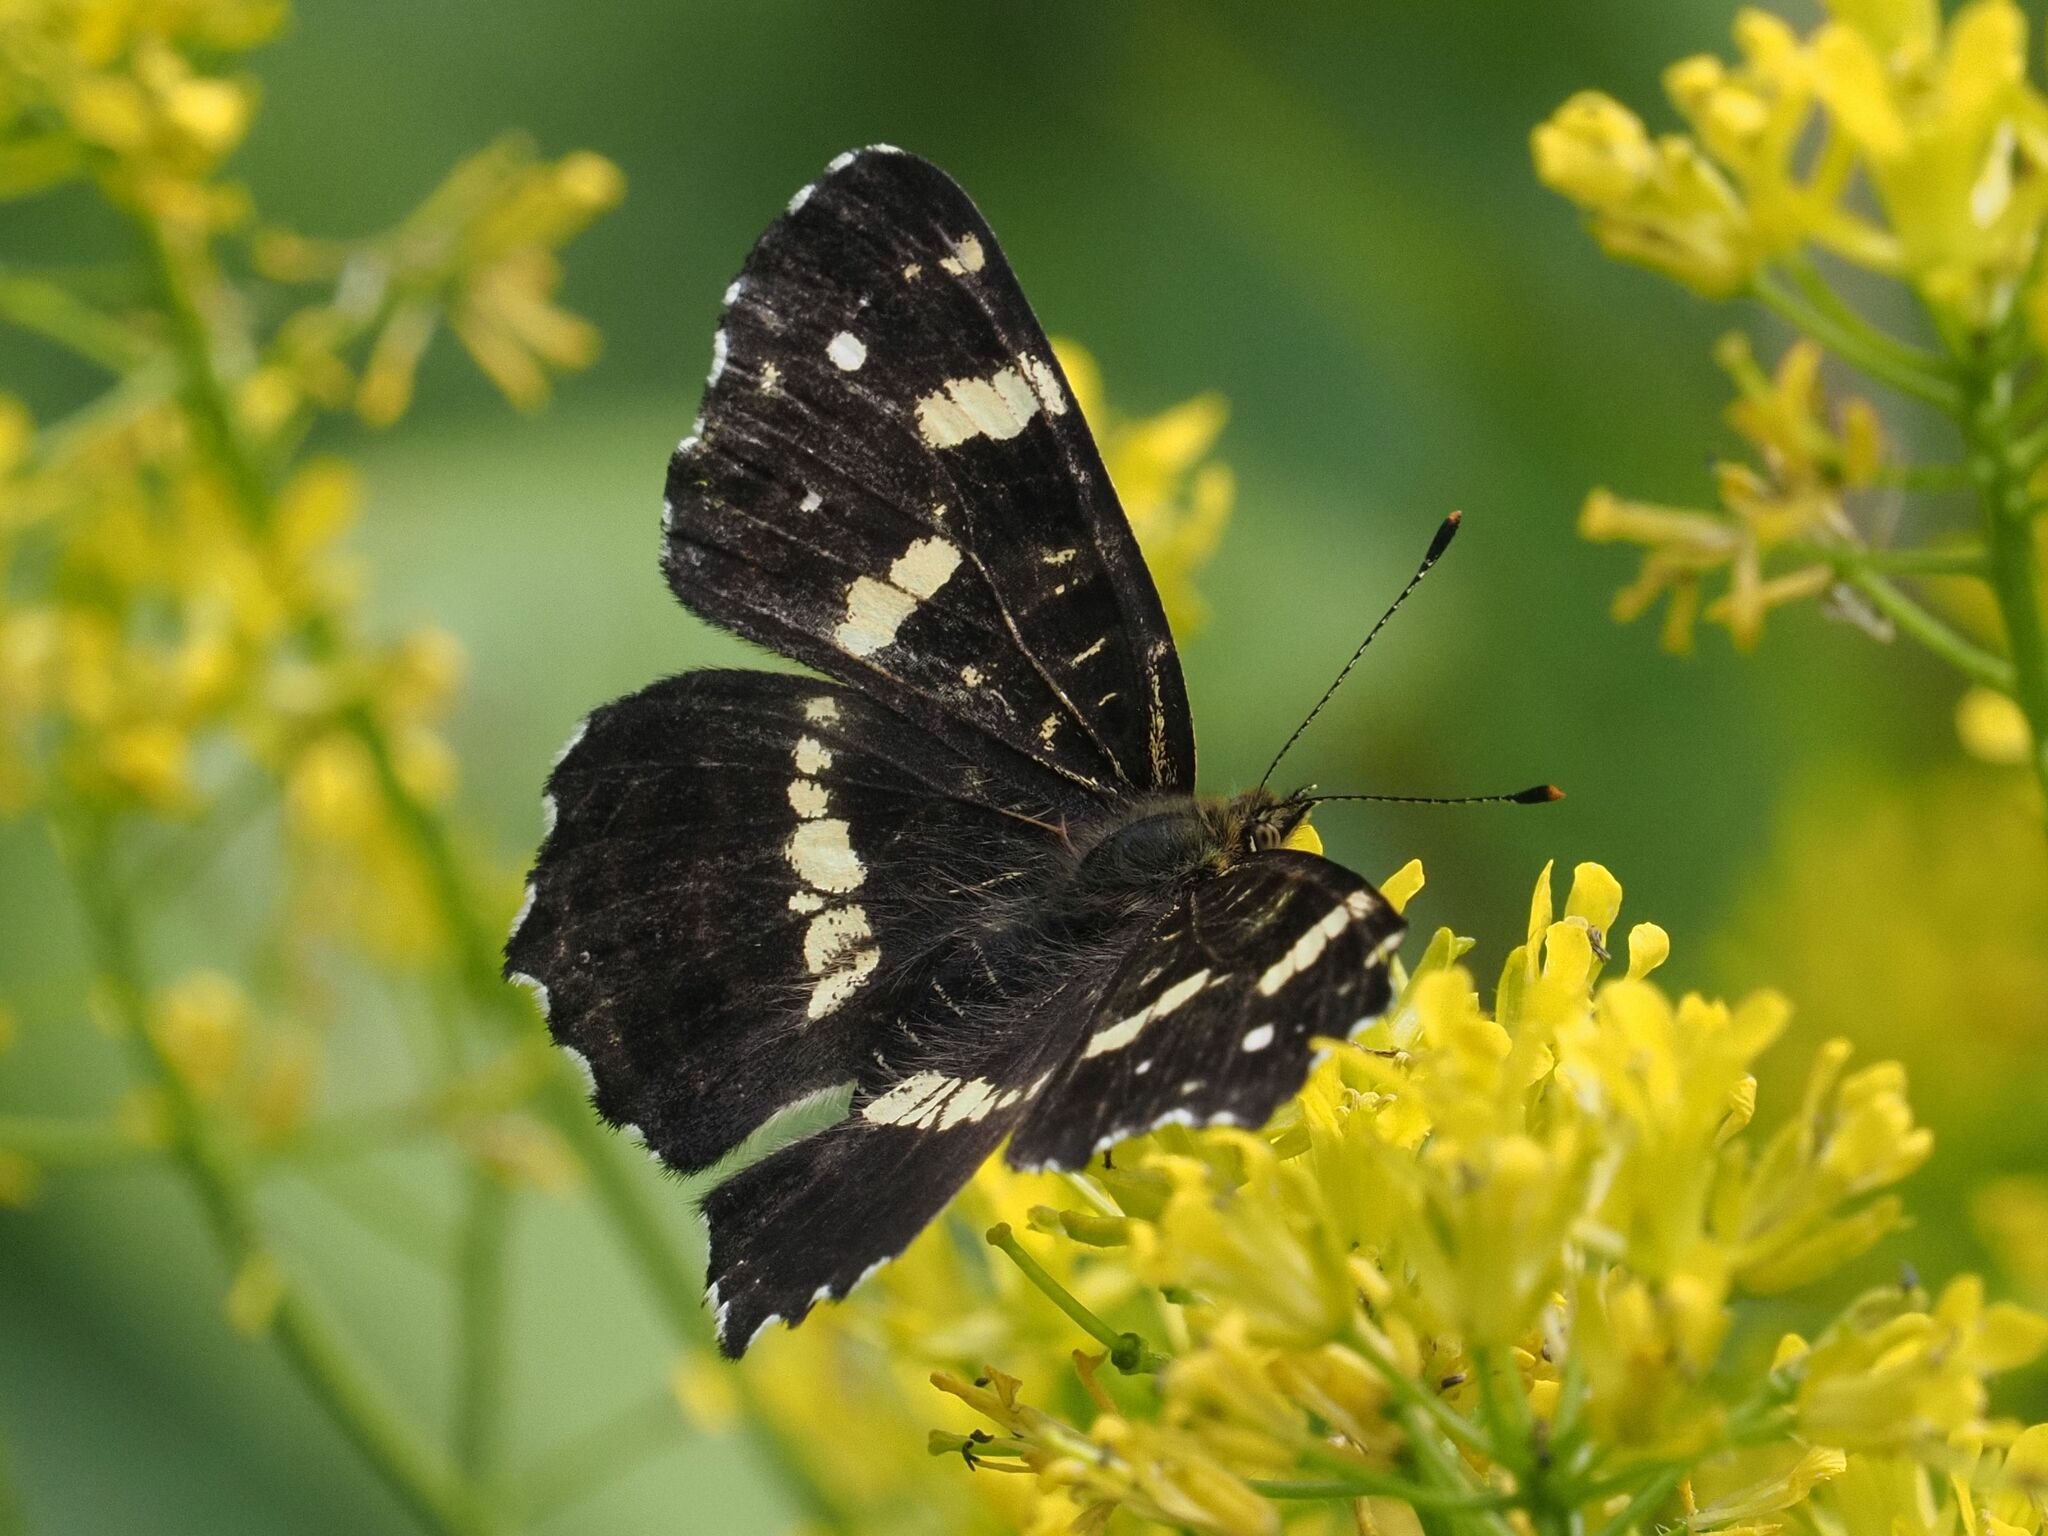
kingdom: Animalia
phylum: Arthropoda
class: Insecta
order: Lepidoptera
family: Nymphalidae
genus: Araschnia
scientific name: Araschnia levana
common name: Map butterfly
